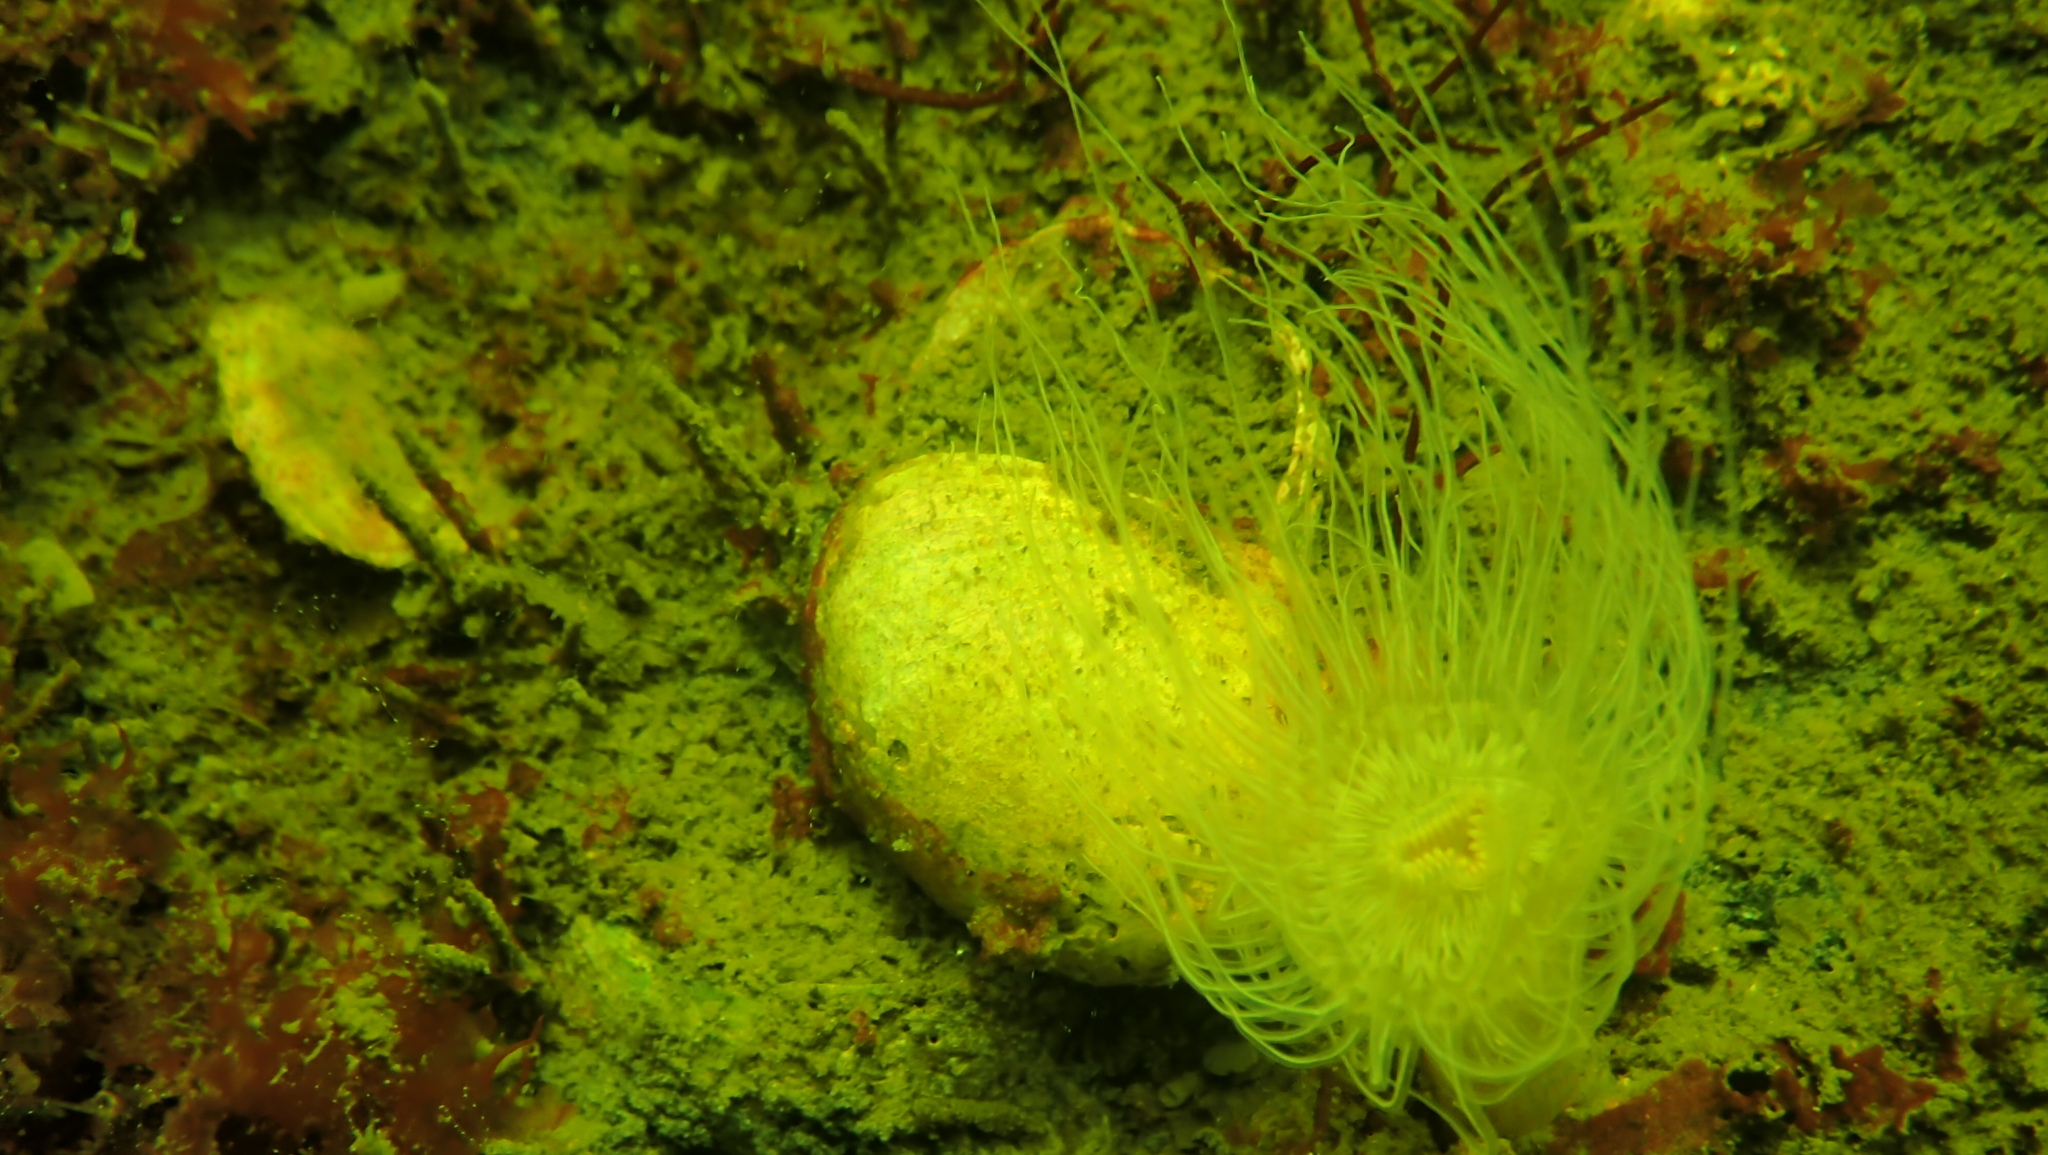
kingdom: Animalia
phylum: Cnidaria
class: Anthozoa
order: Actiniaria
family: Sagartiidae
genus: Sagartia
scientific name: Sagartia undata
